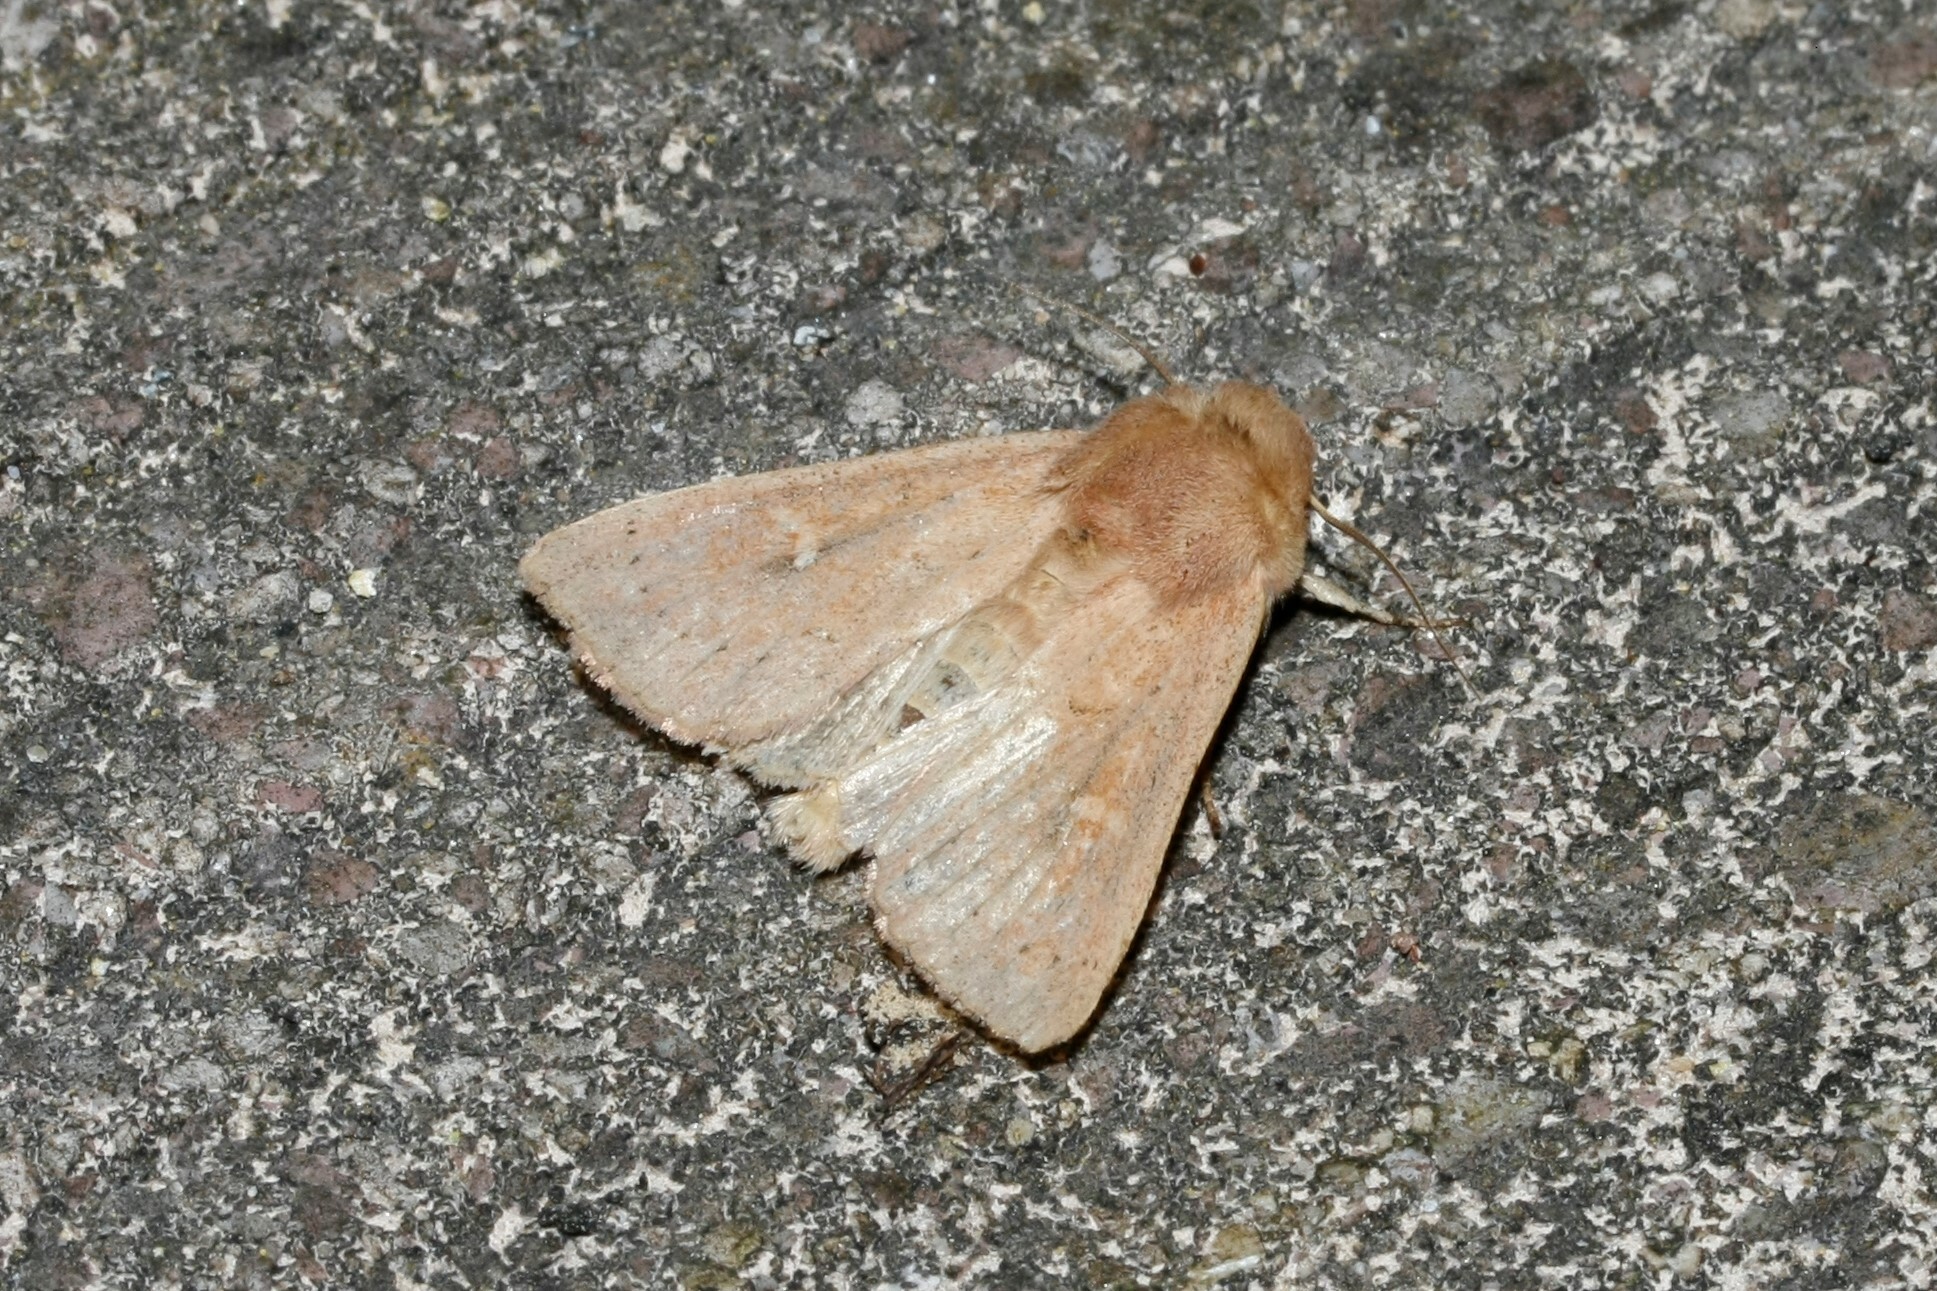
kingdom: Animalia
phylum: Arthropoda
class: Insecta
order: Lepidoptera
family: Noctuidae
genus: Mythimna
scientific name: Mythimna ferrago
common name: Clay
